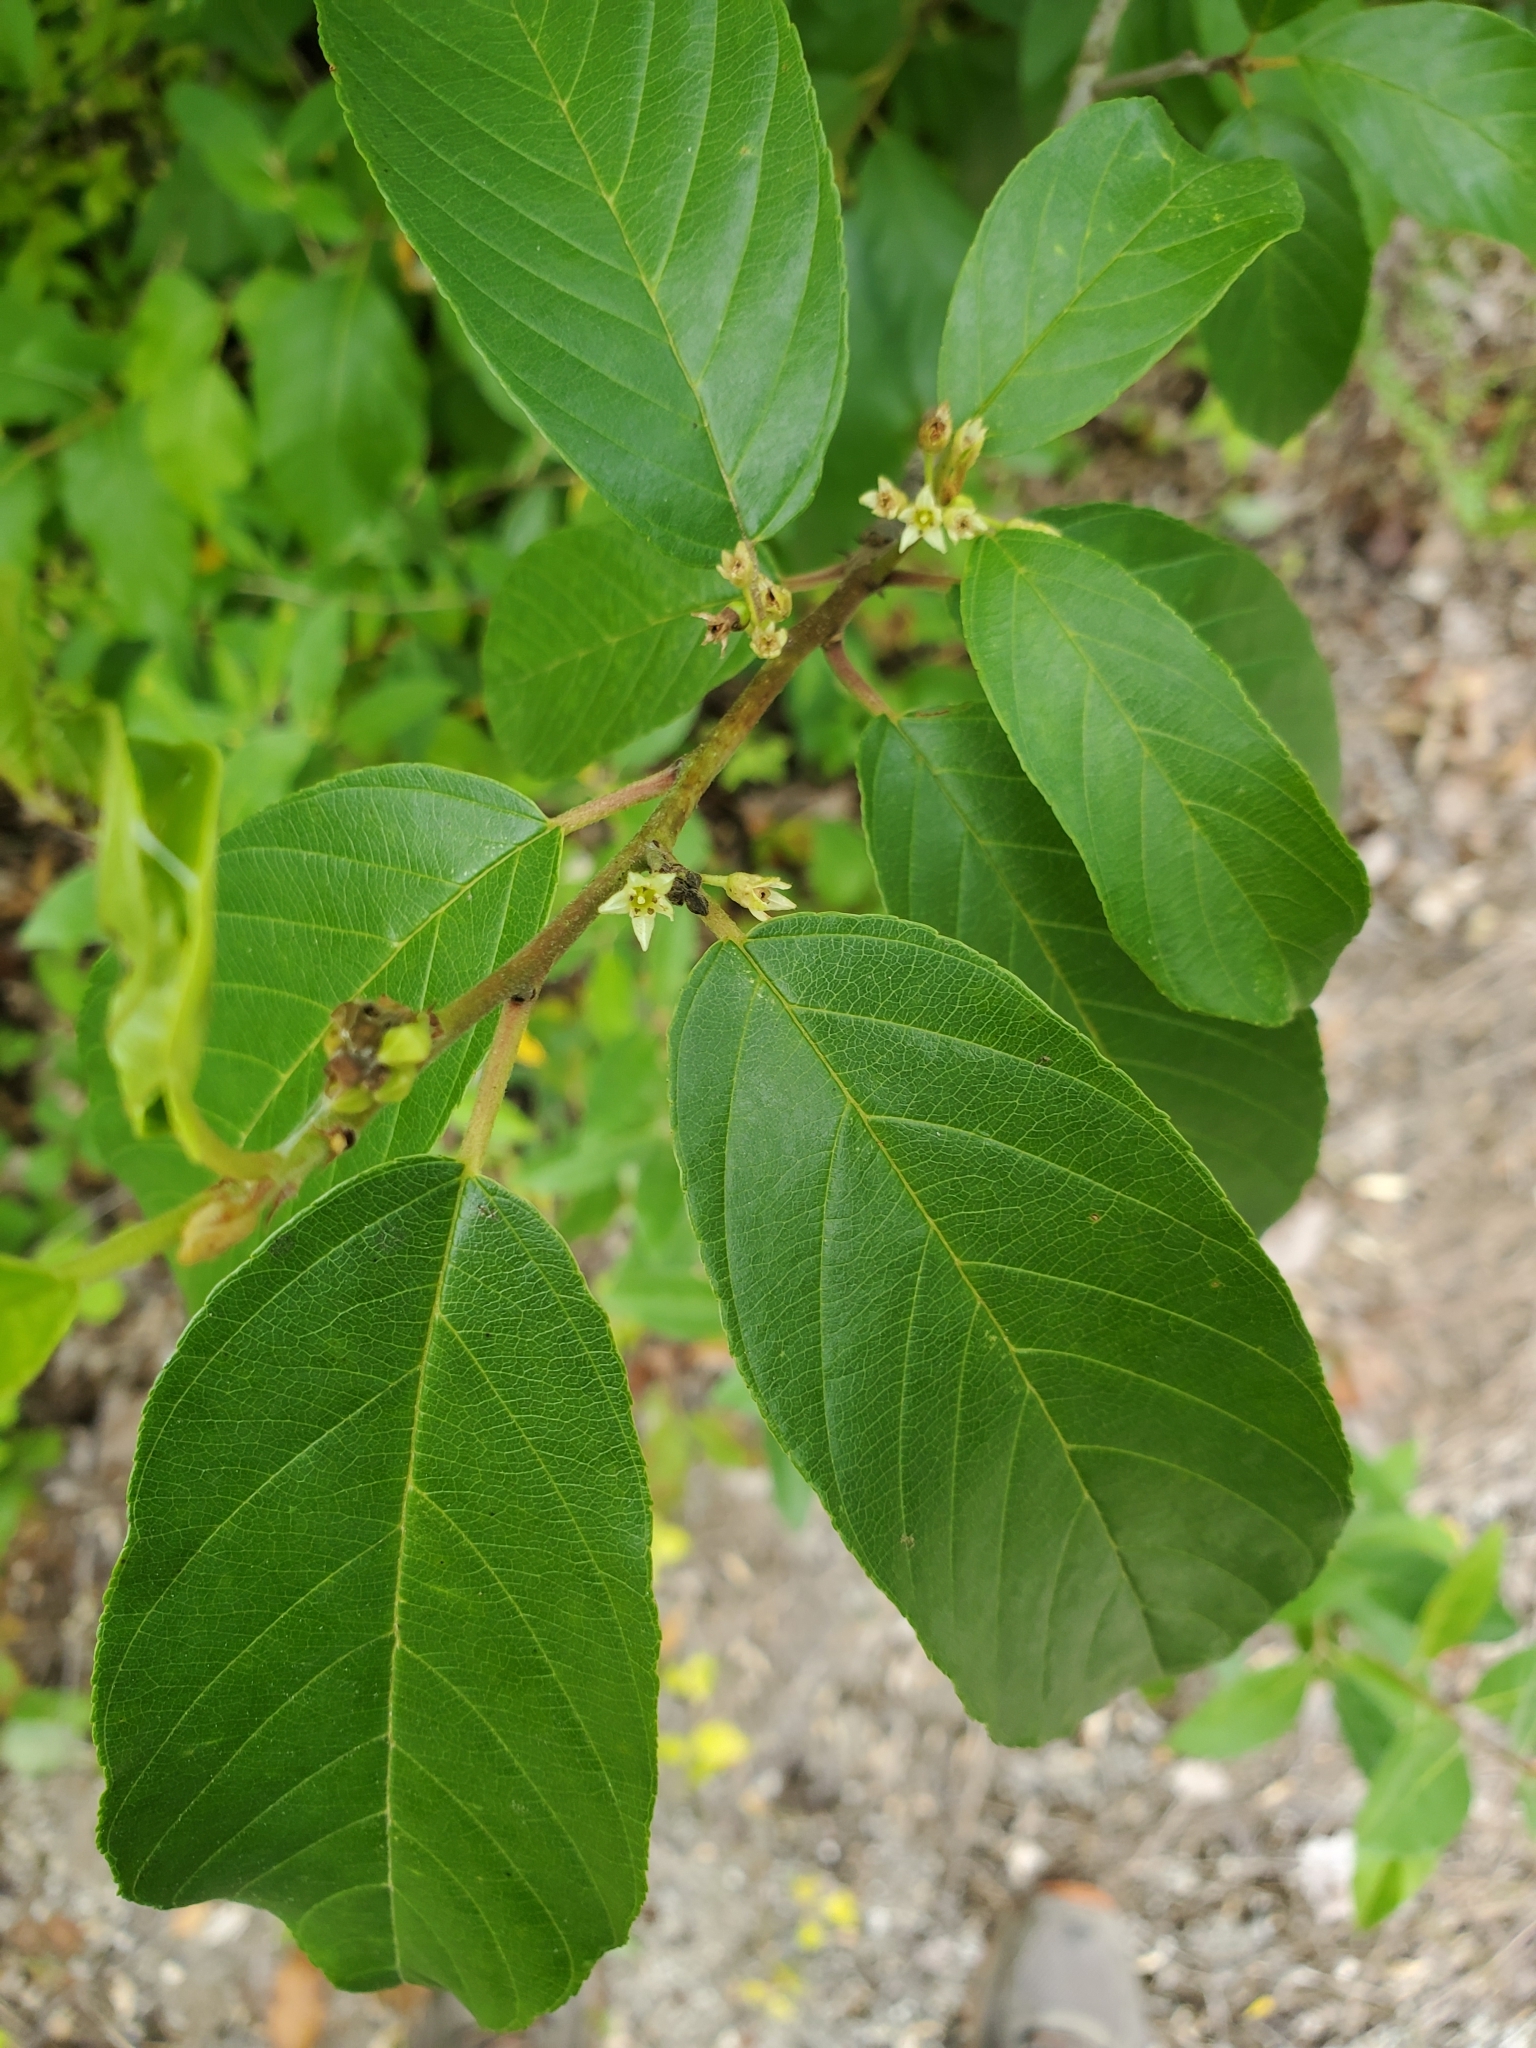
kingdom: Plantae
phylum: Tracheophyta
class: Magnoliopsida
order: Rosales
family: Rhamnaceae
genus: Frangula
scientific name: Frangula caroliniana
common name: Carolina buckthorn
